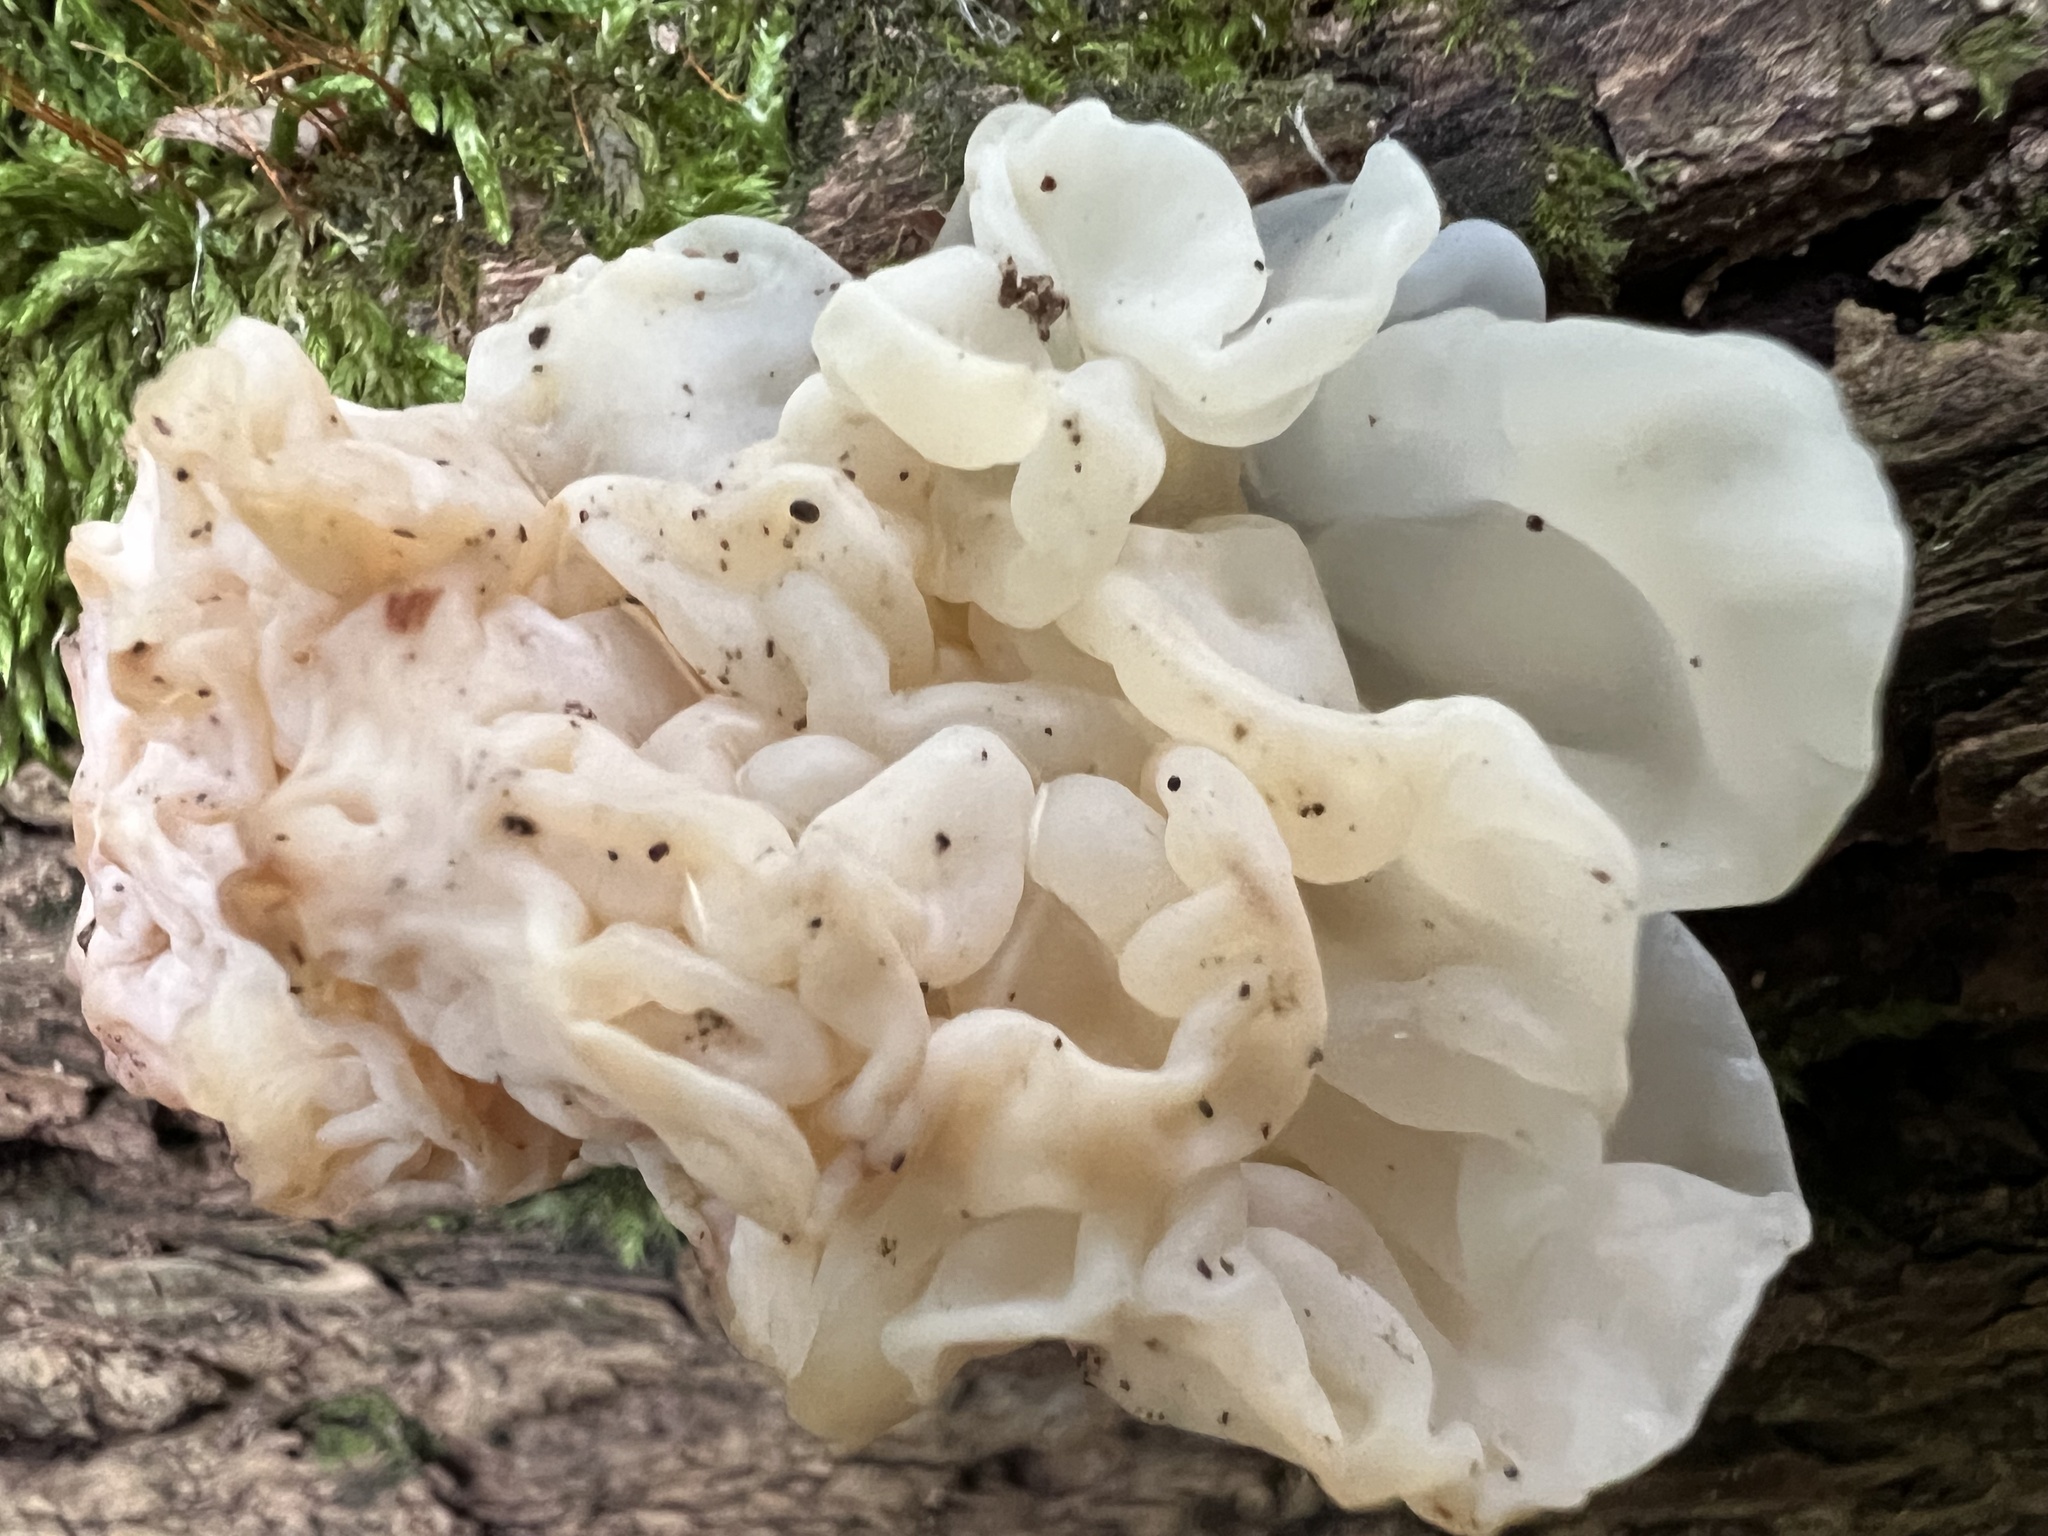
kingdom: Fungi
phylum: Basidiomycota
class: Agaricomycetes
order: Auriculariales
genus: Ductifera
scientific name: Ductifera pululahuana
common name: White jelly fungus
